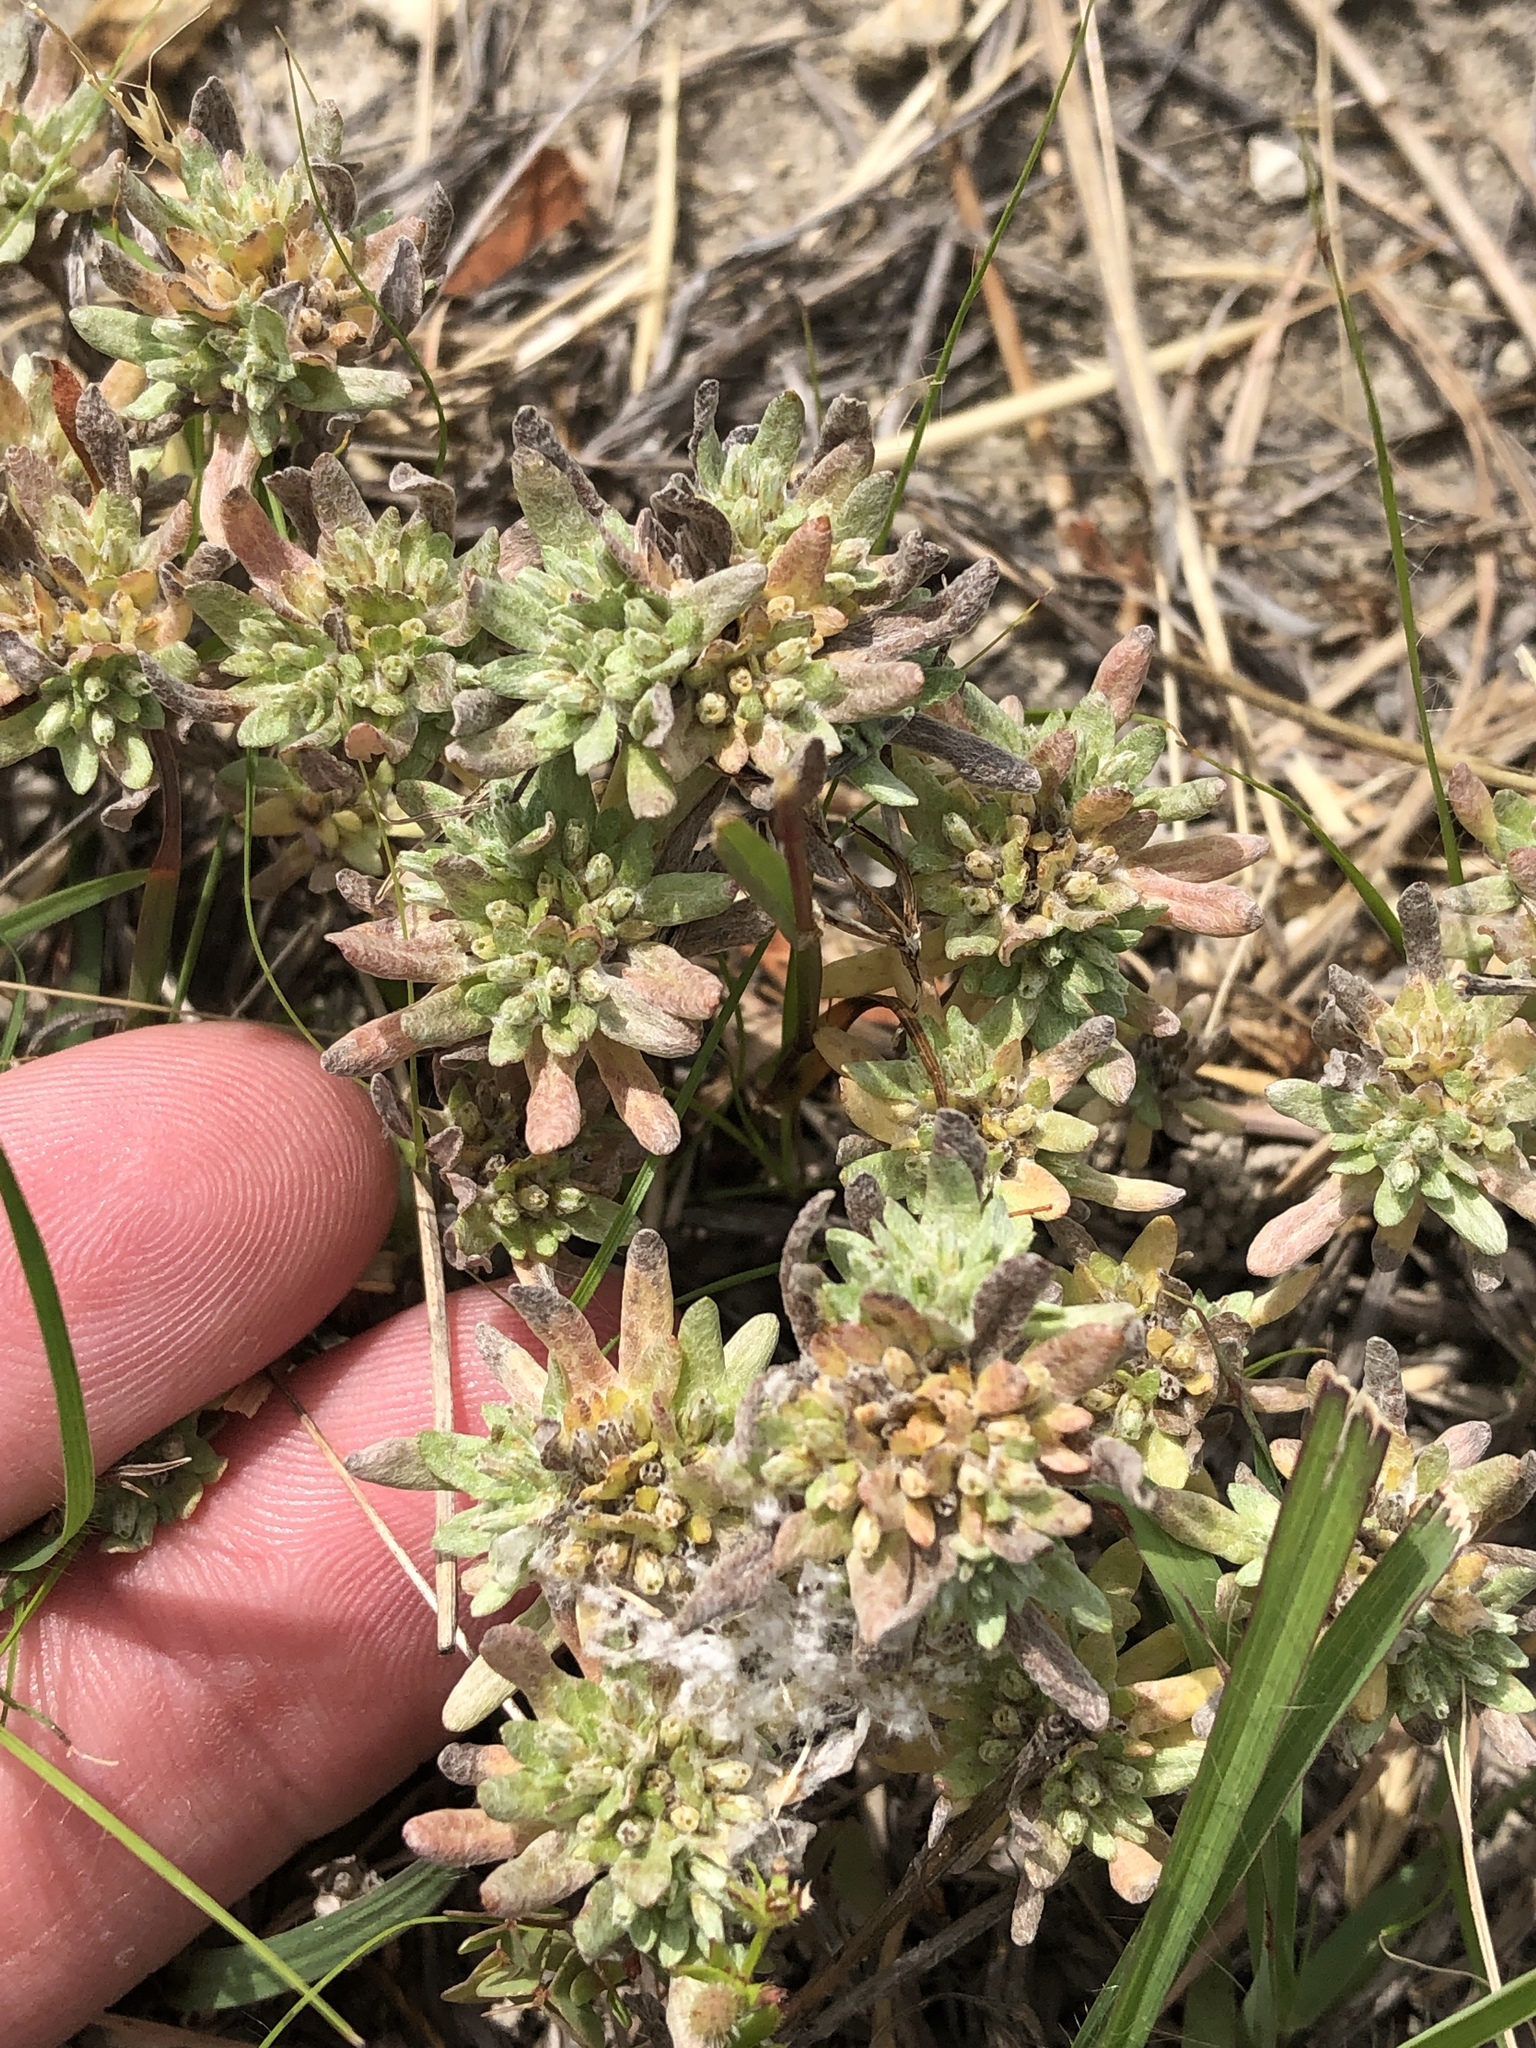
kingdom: Plantae
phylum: Tracheophyta
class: Magnoliopsida
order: Asterales
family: Asteraceae
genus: Diaperia
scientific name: Diaperia prolifera
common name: Big-head rabbit-tobacco
